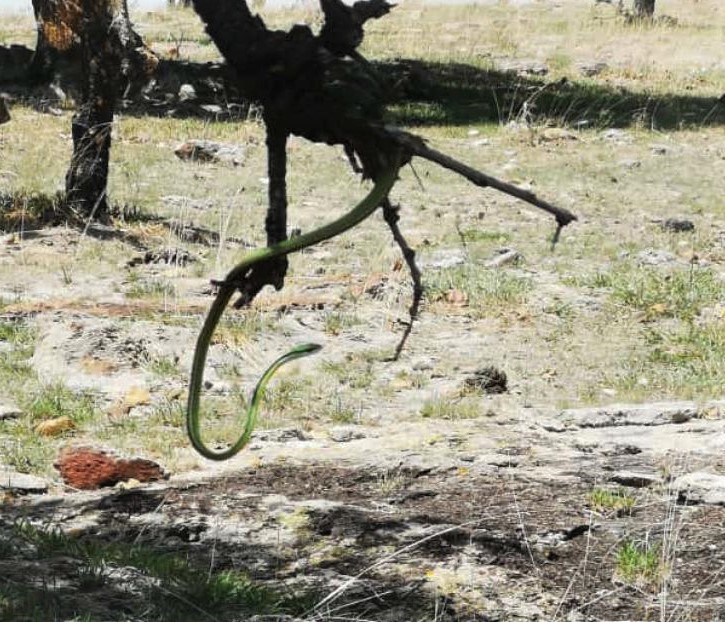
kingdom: Animalia
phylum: Chordata
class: Squamata
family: Colubridae
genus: Leptophis
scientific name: Leptophis diplotropis
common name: Pacific coast parrot snake
